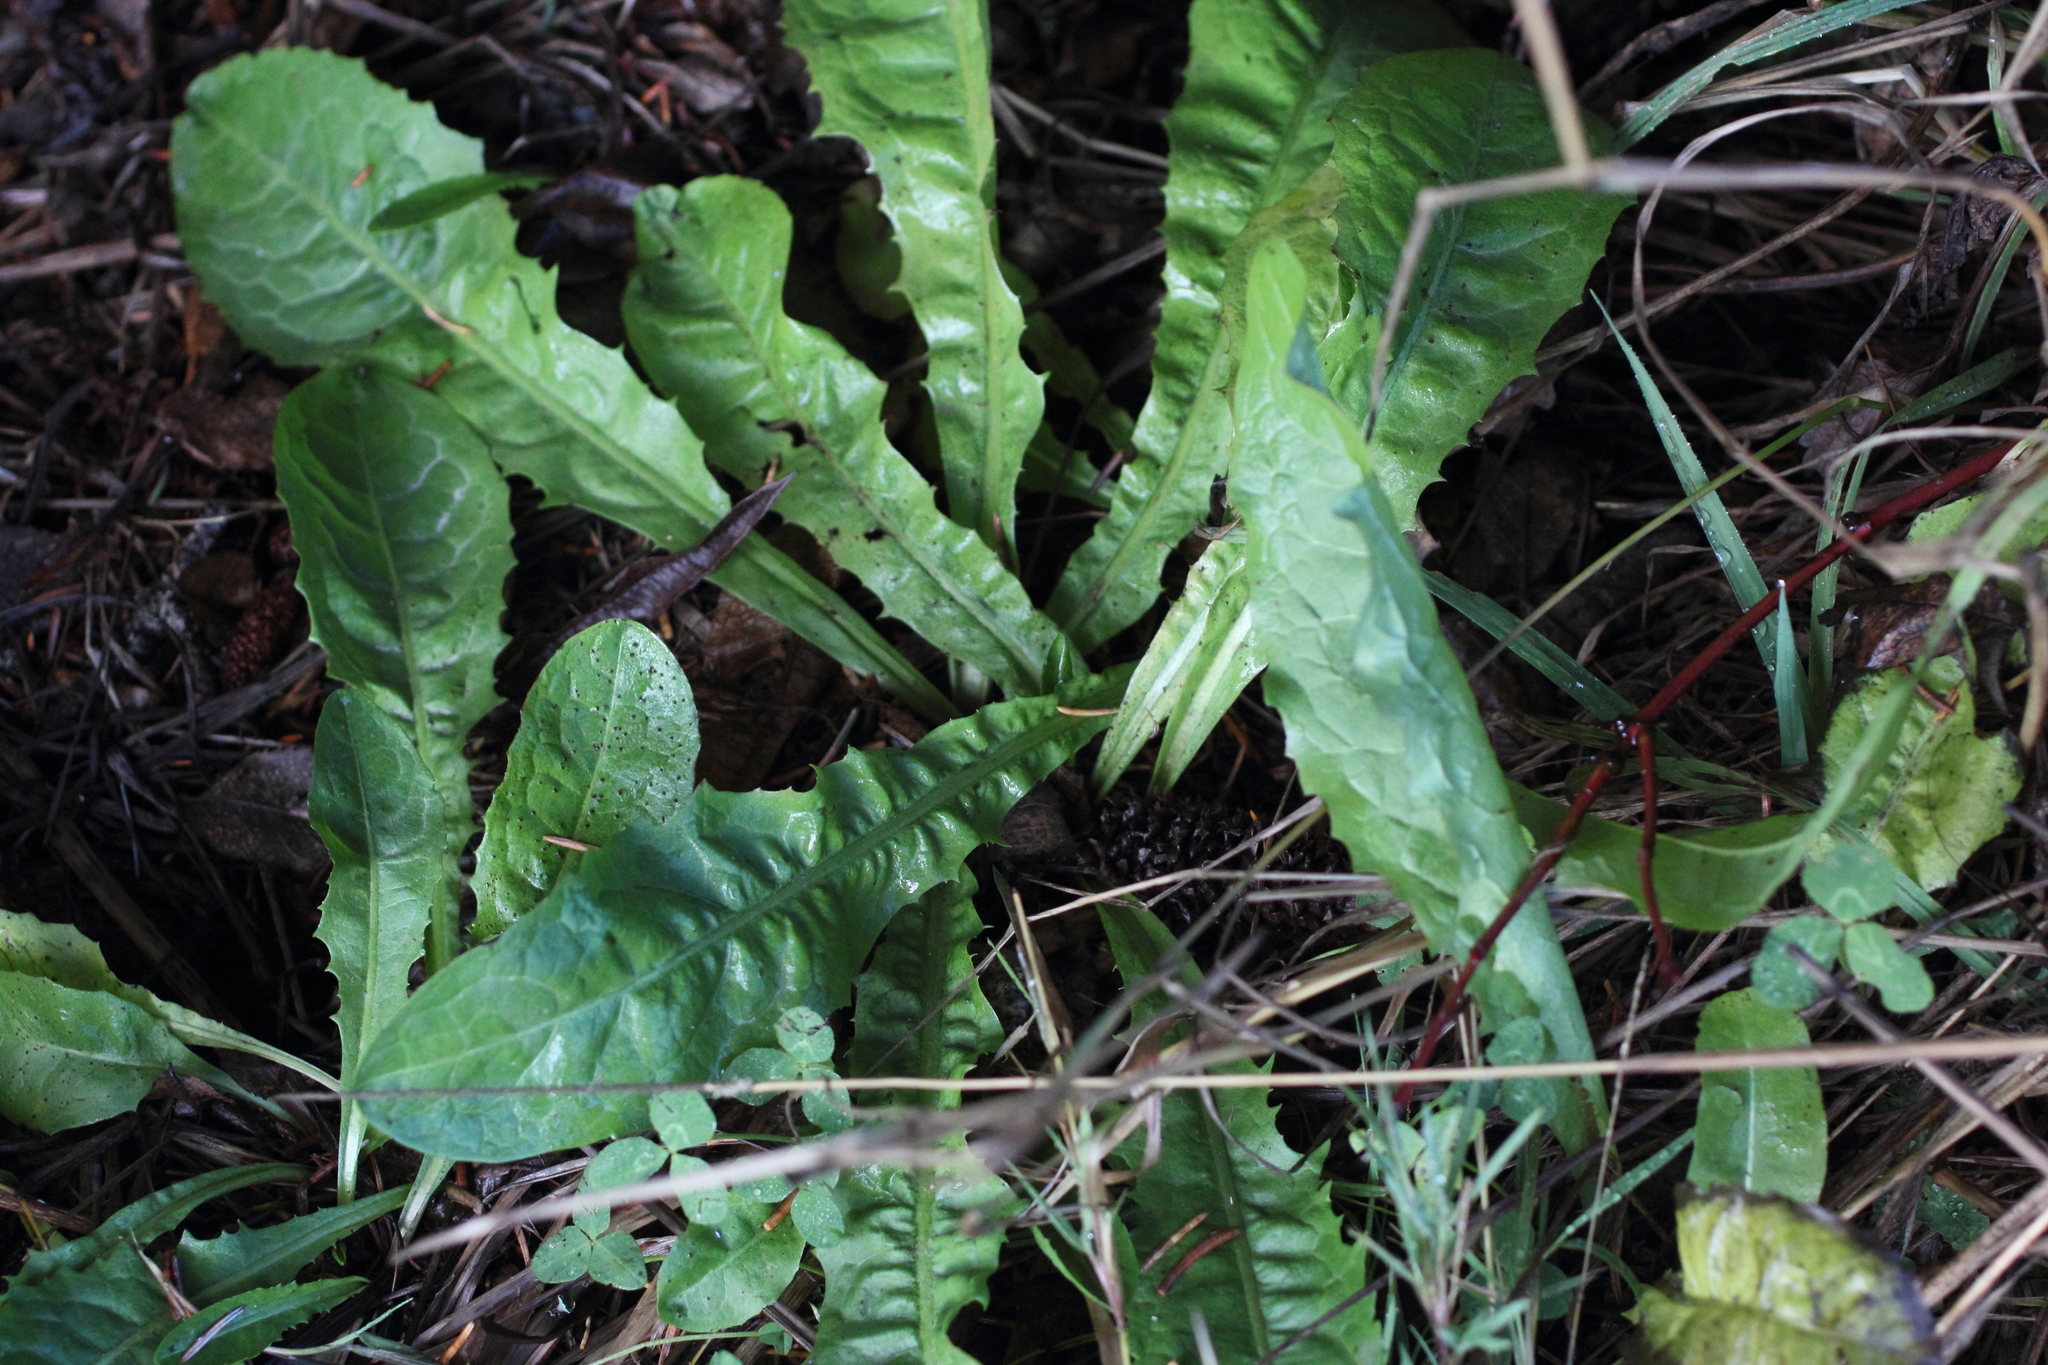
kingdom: Plantae
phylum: Tracheophyta
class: Magnoliopsida
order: Asterales
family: Asteraceae
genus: Taraxacum
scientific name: Taraxacum officinale
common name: Common dandelion
